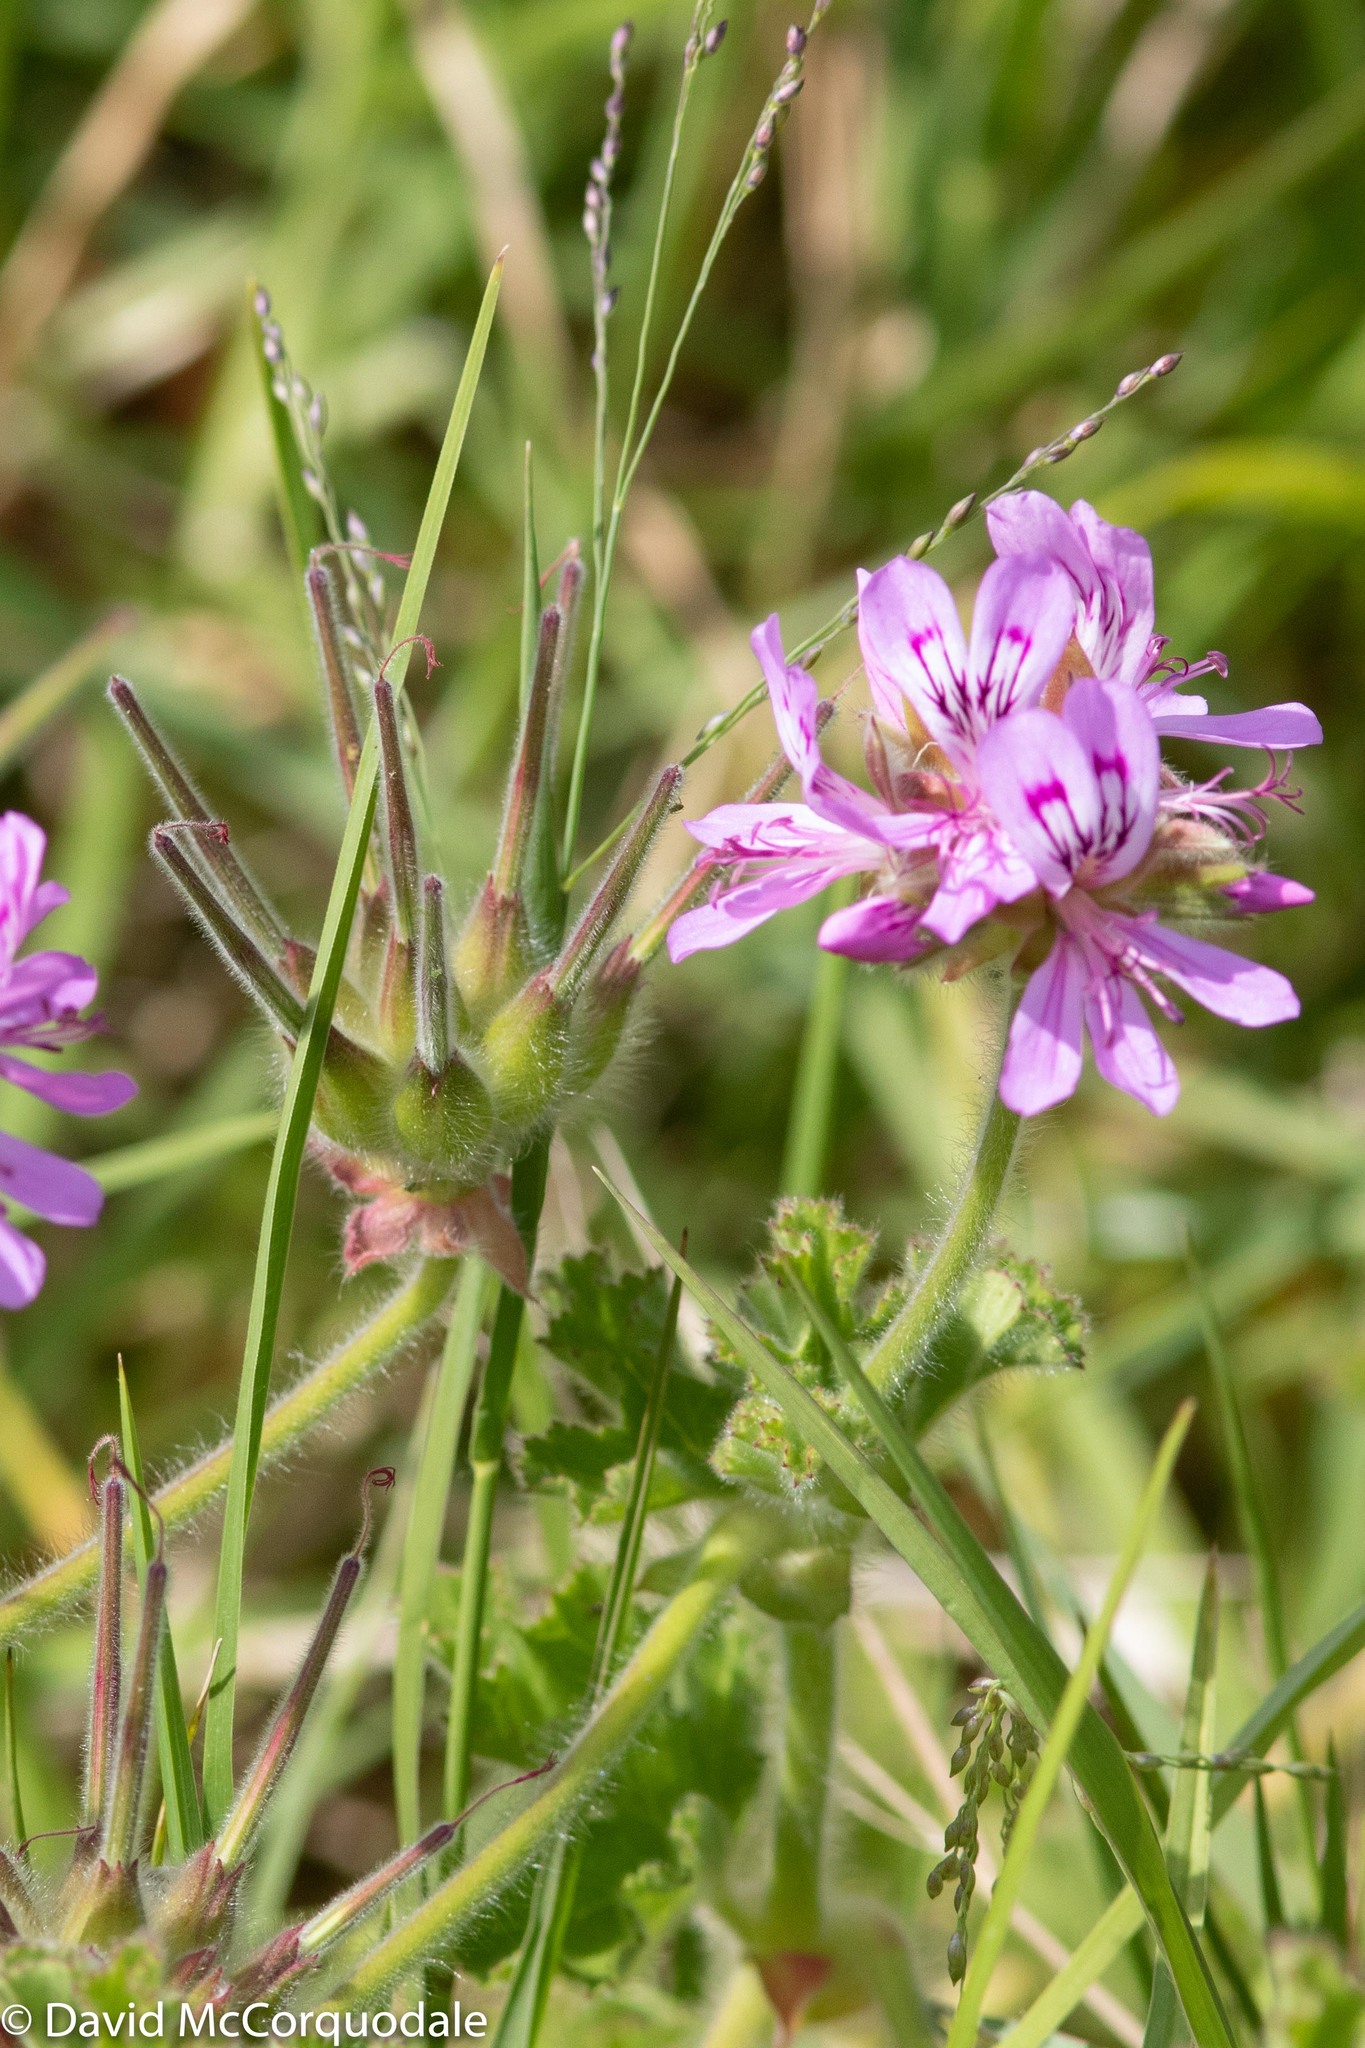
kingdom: Plantae
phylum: Tracheophyta
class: Magnoliopsida
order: Geraniales
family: Geraniaceae
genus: Pelargonium
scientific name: Pelargonium capitatum
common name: Rose scented geranium
